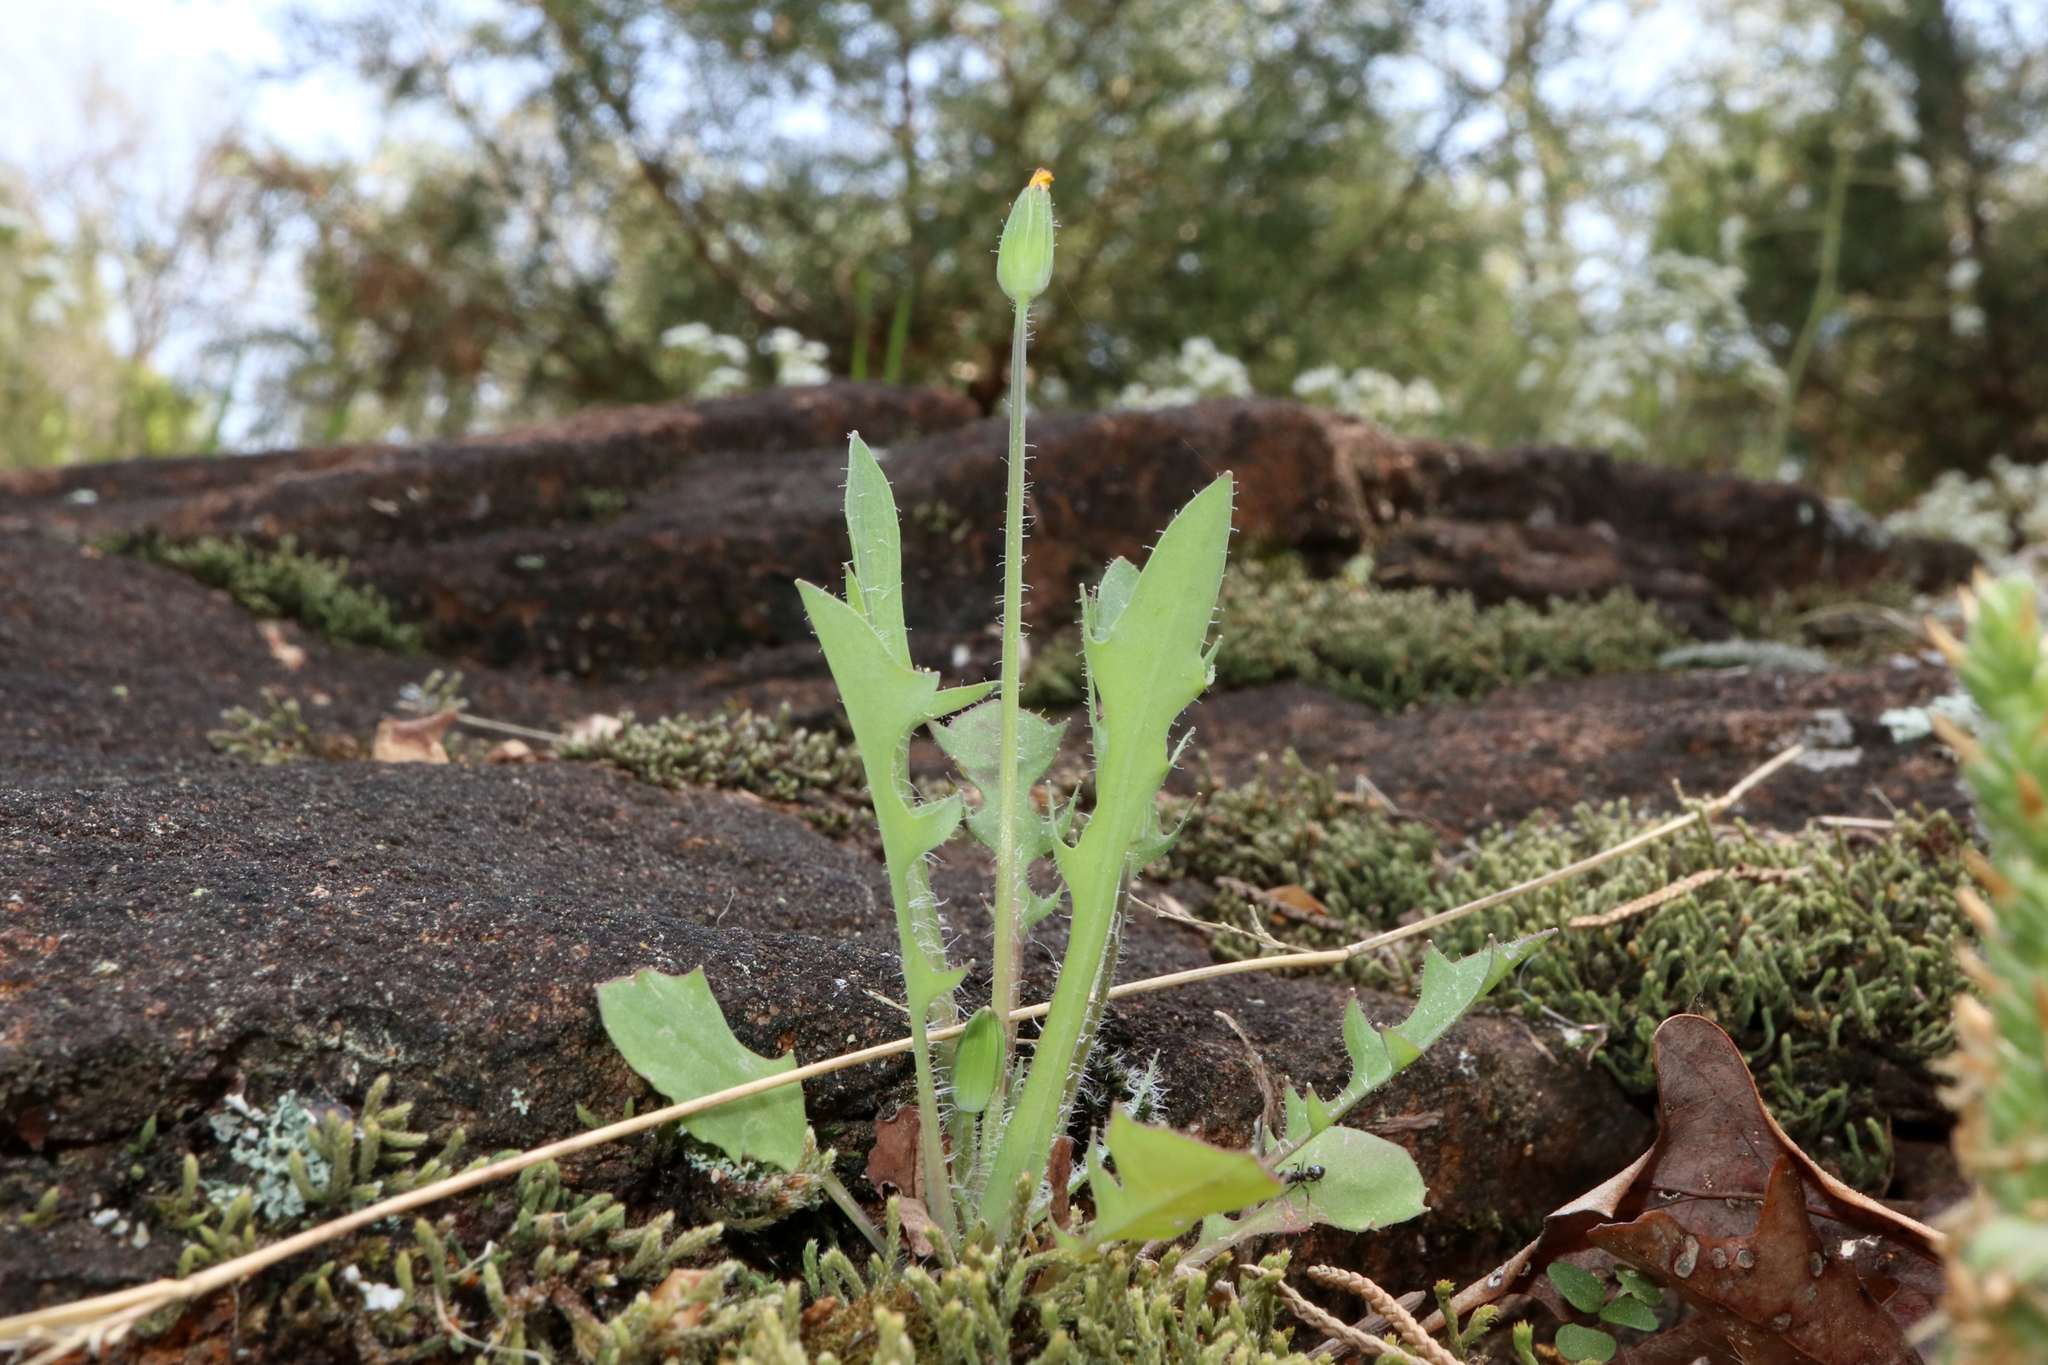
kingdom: Plantae
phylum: Tracheophyta
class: Magnoliopsida
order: Asterales
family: Asteraceae
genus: Krigia
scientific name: Krigia virginica
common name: Virginia dwarf-dandelion
